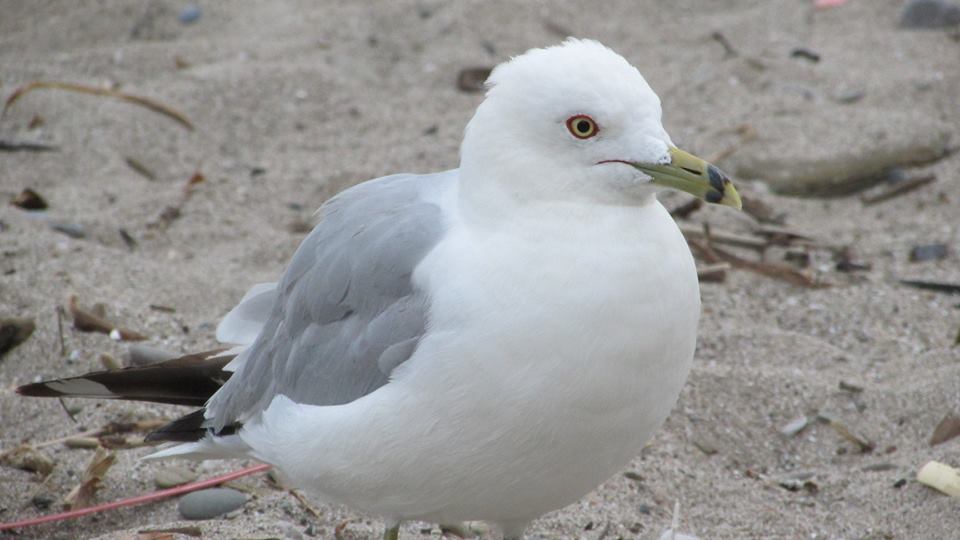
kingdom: Animalia
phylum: Chordata
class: Aves
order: Charadriiformes
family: Laridae
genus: Larus
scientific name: Larus delawarensis
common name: Ring-billed gull
